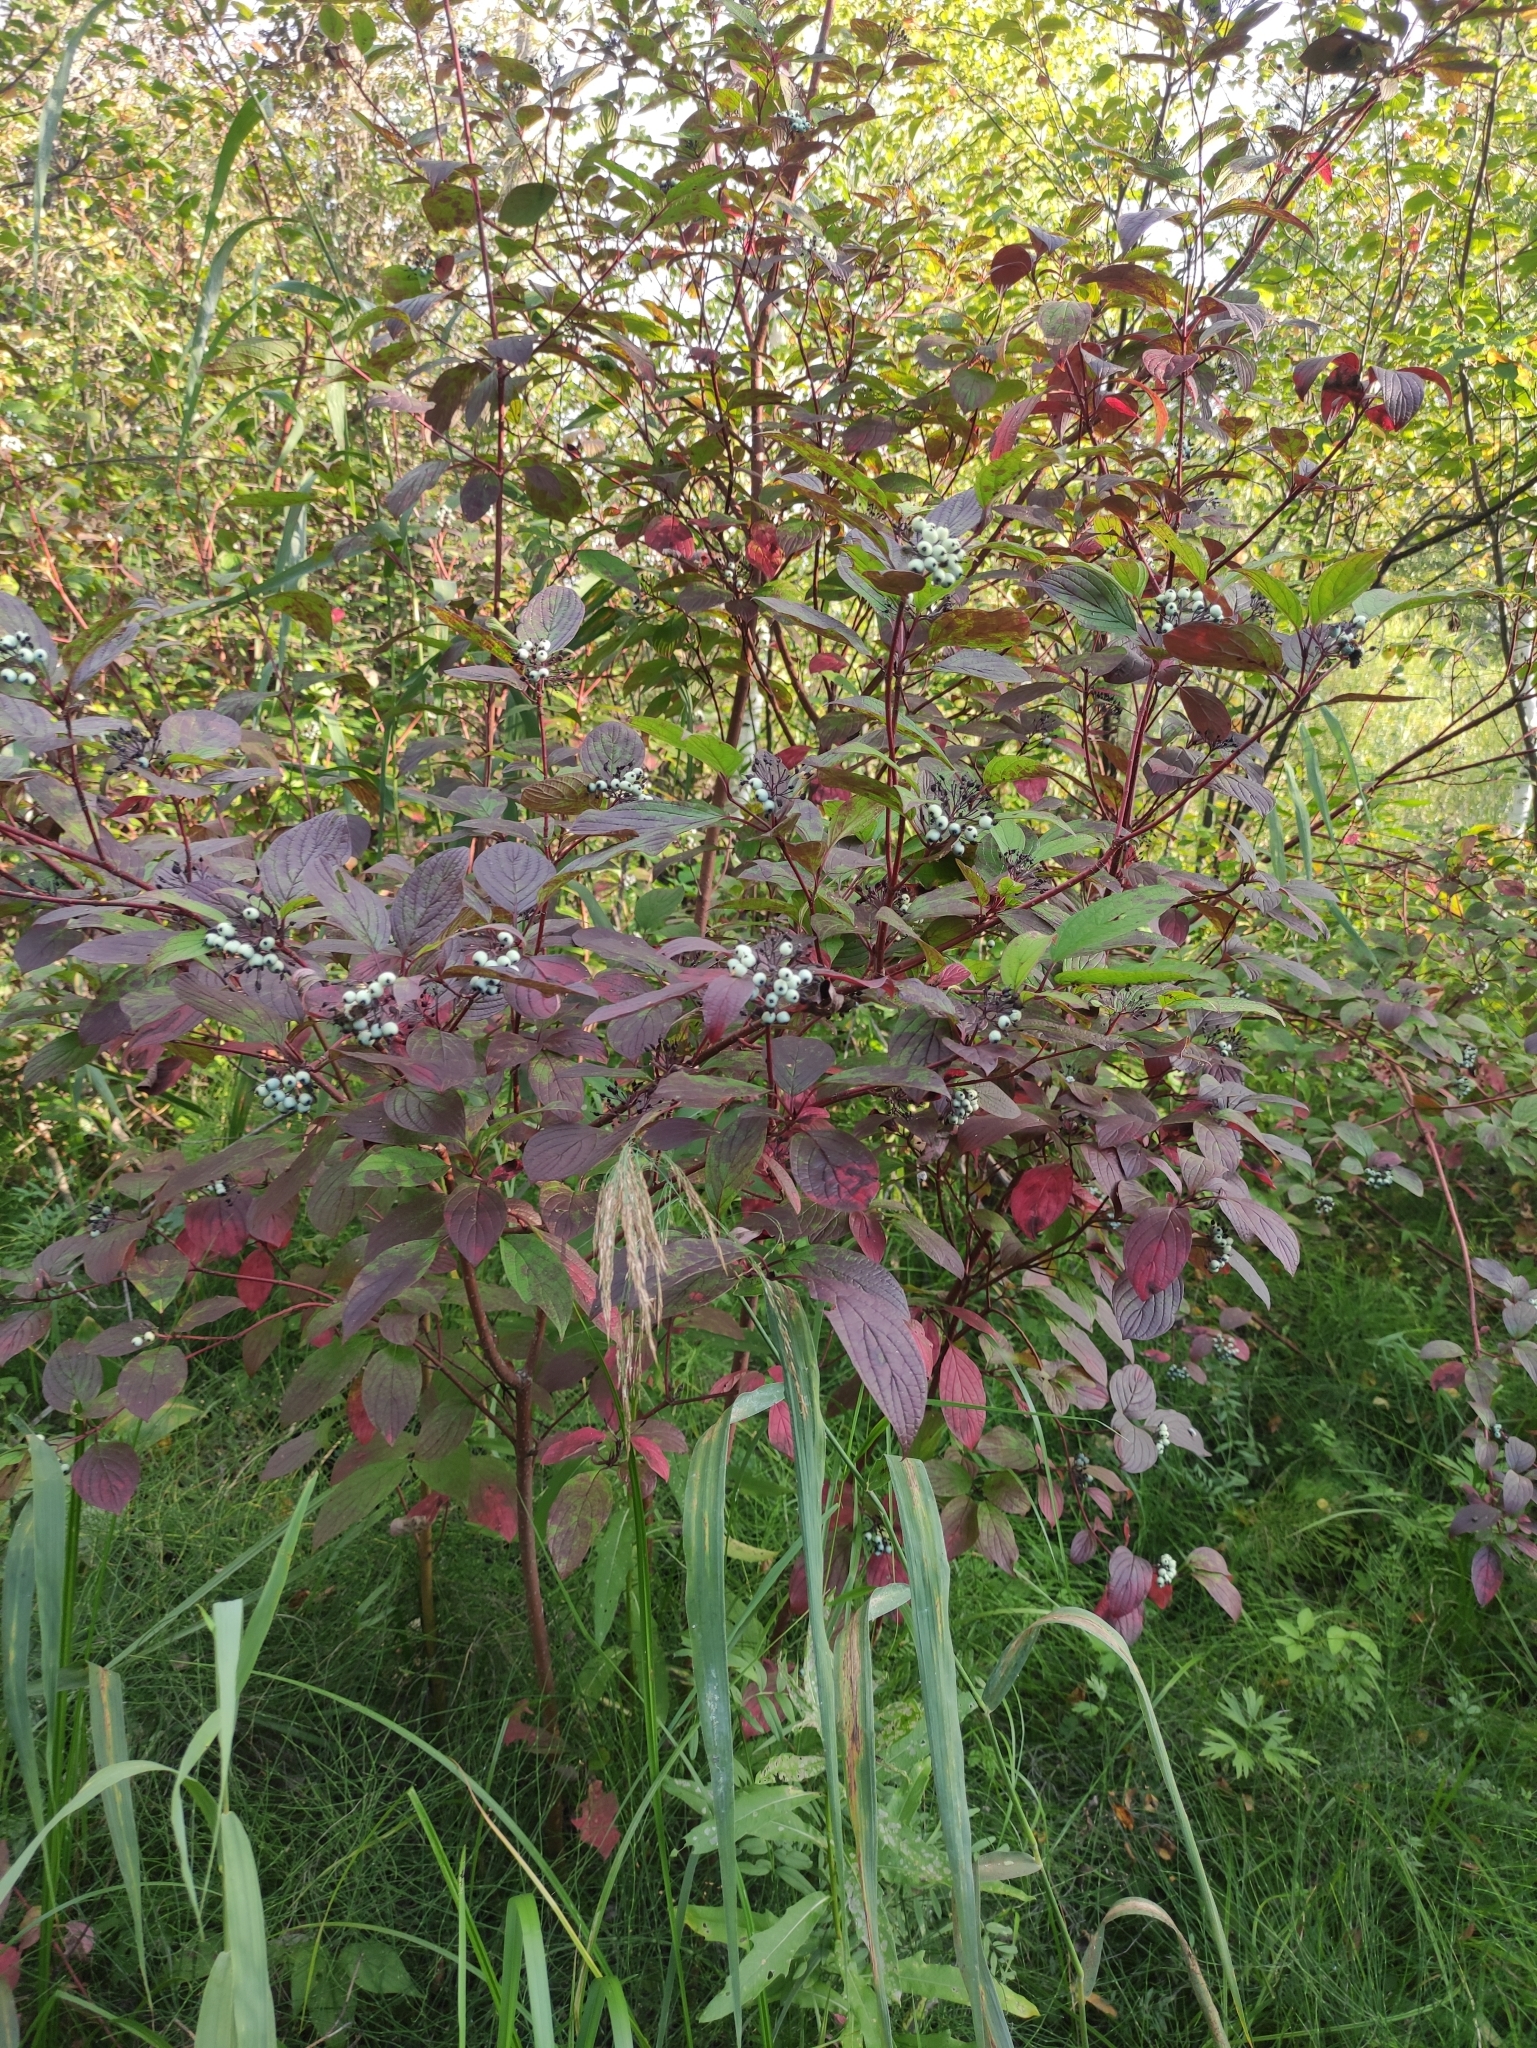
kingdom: Plantae
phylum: Tracheophyta
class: Magnoliopsida
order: Cornales
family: Cornaceae
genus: Cornus
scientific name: Cornus alba
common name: White dogwood
